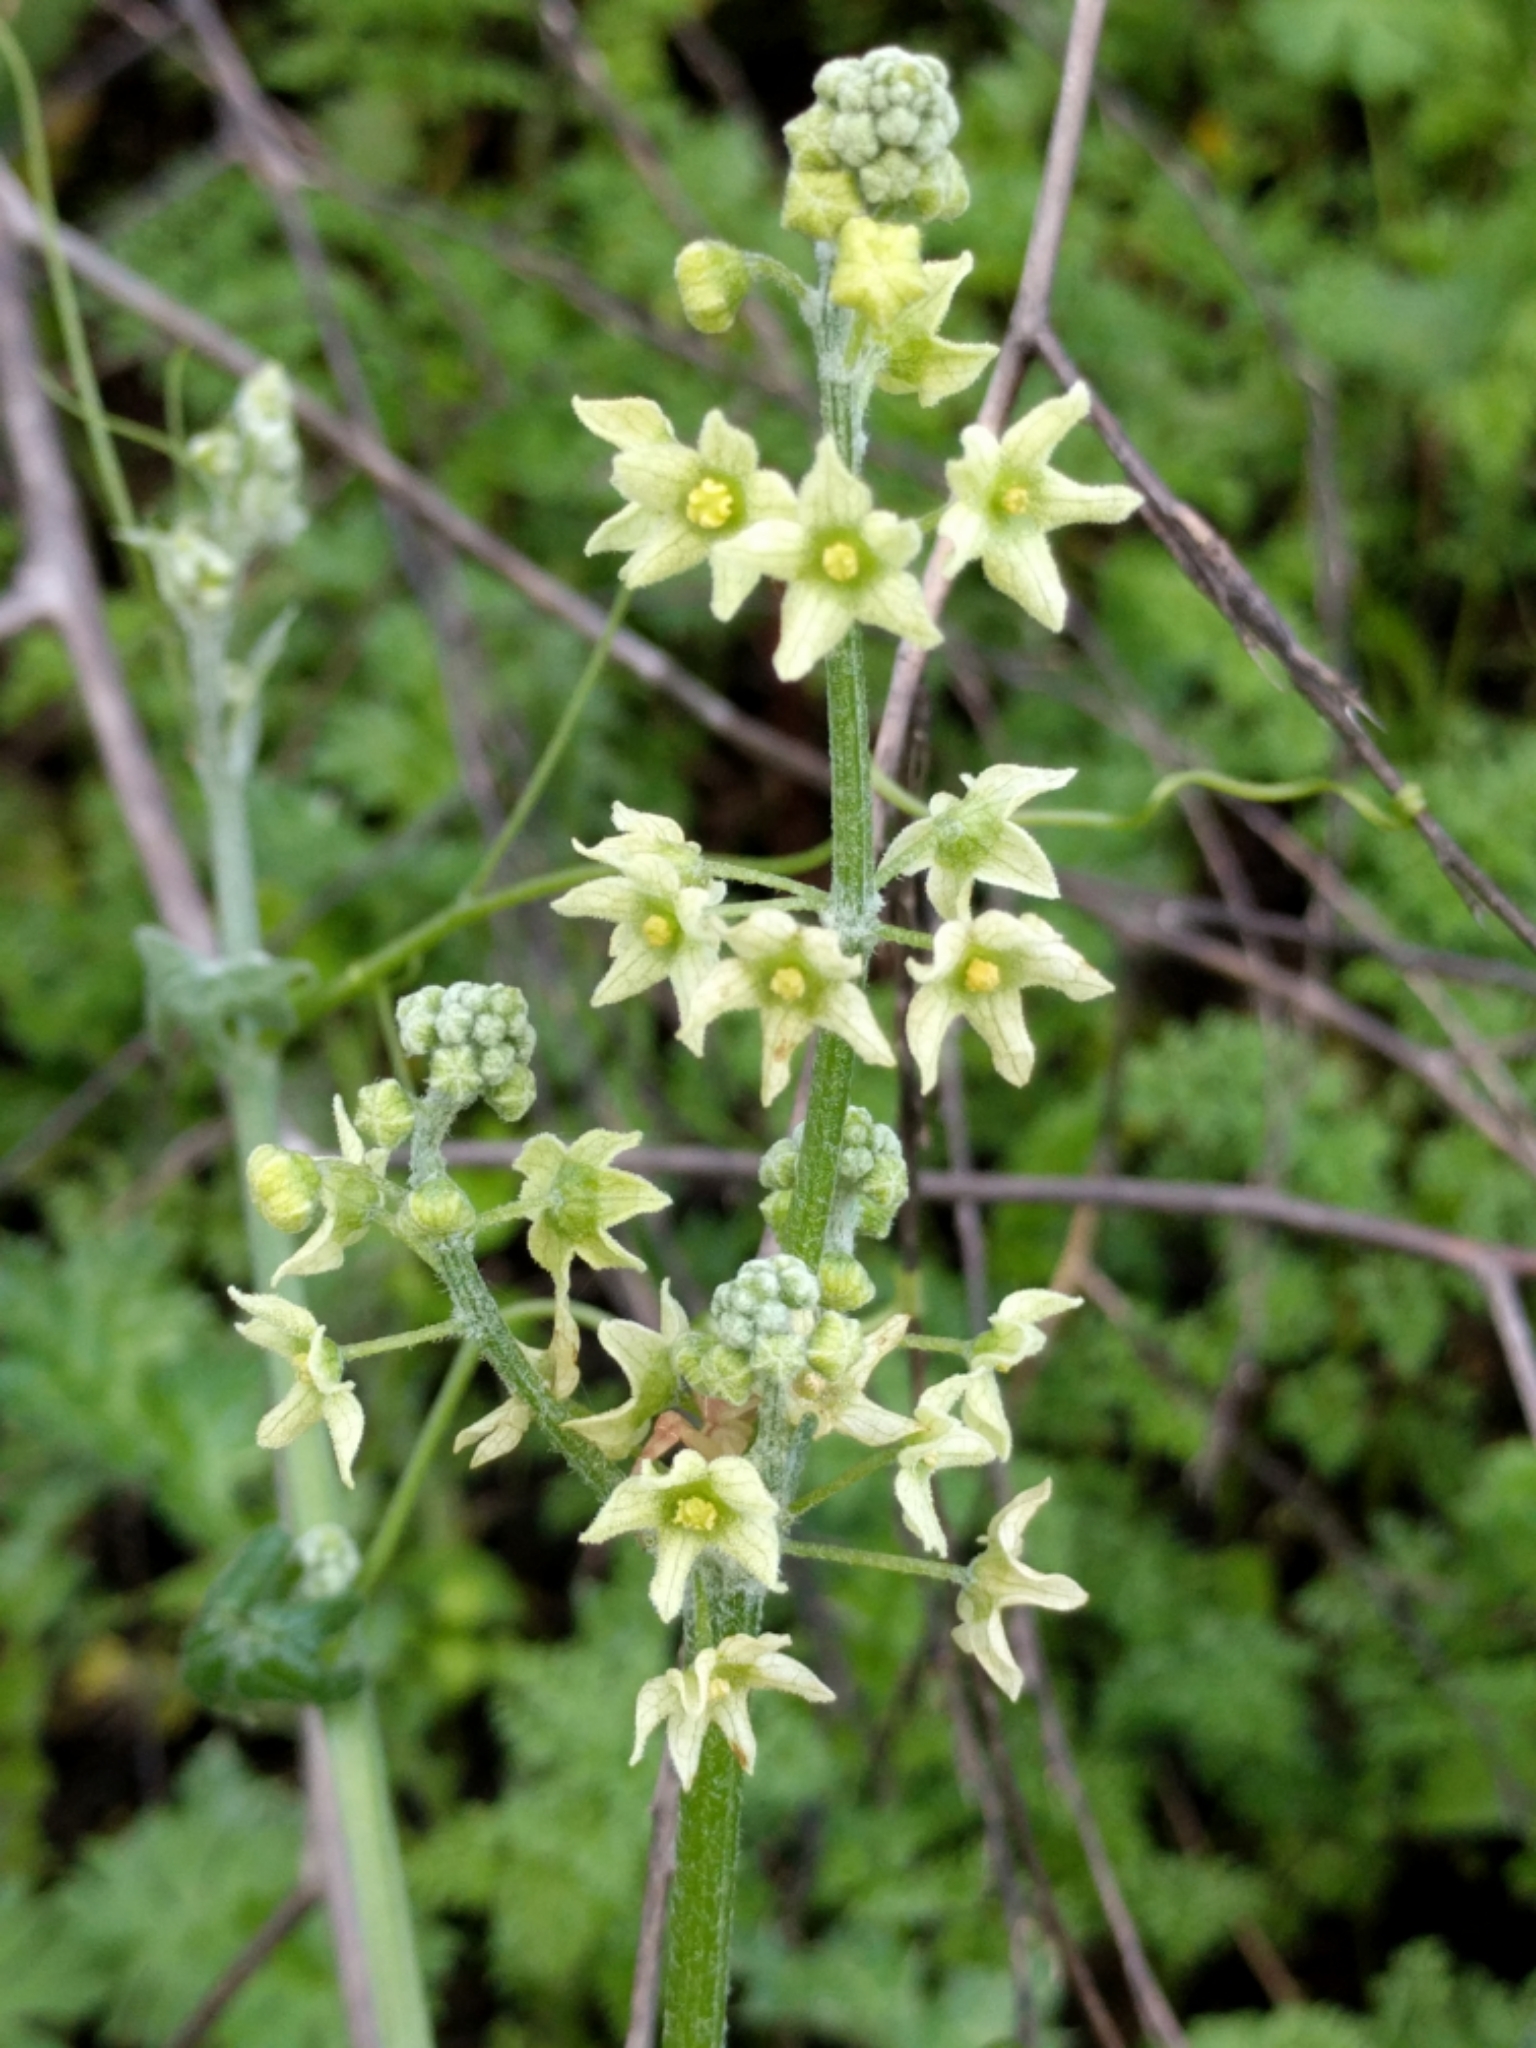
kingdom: Plantae
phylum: Tracheophyta
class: Magnoliopsida
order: Cucurbitales
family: Cucurbitaceae
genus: Marah
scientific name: Marah fabacea
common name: California manroot
